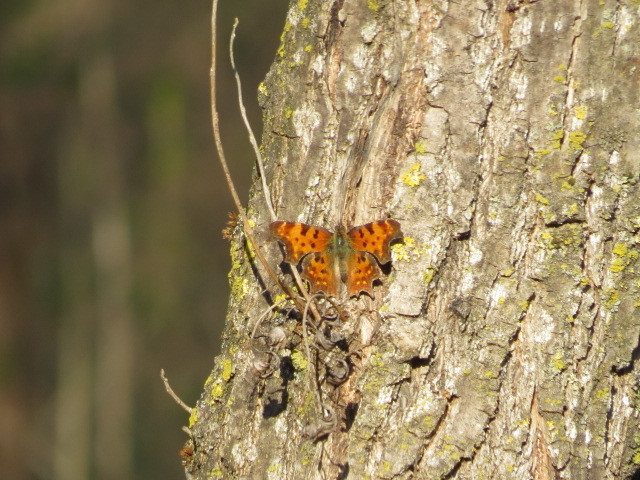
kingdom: Animalia
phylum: Arthropoda
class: Insecta
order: Lepidoptera
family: Nymphalidae
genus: Polygonia
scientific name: Polygonia c-album
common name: Comma
